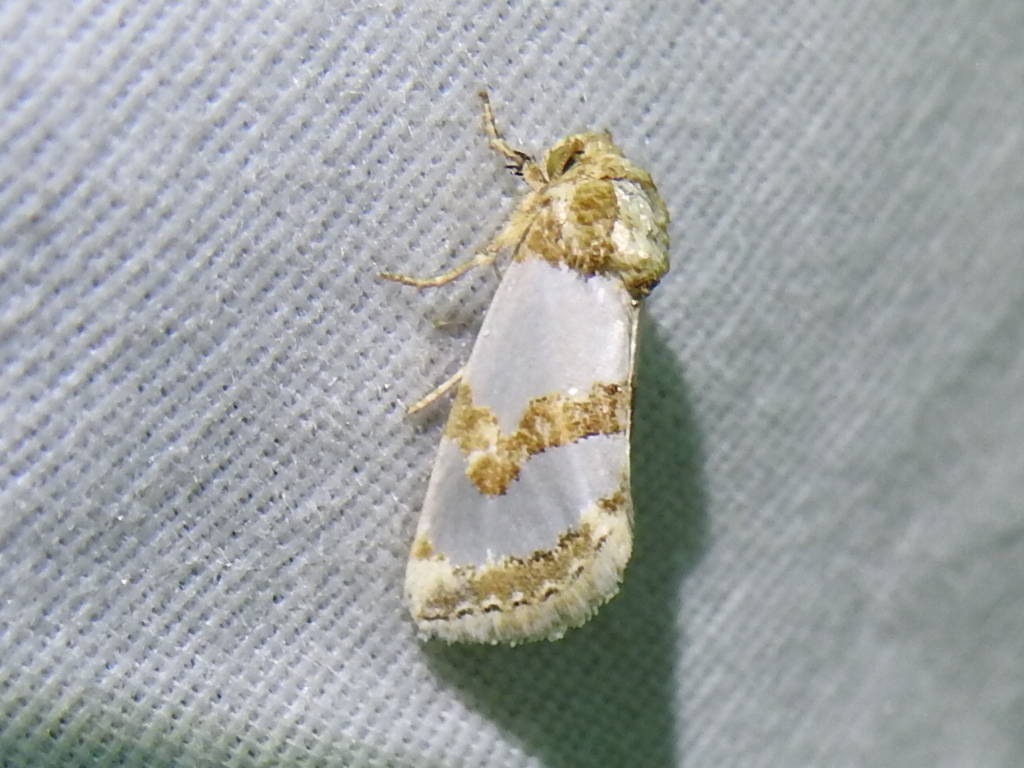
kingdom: Animalia
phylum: Arthropoda
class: Insecta
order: Lepidoptera
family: Noctuidae
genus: Schinia
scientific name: Schinia chrysellus
